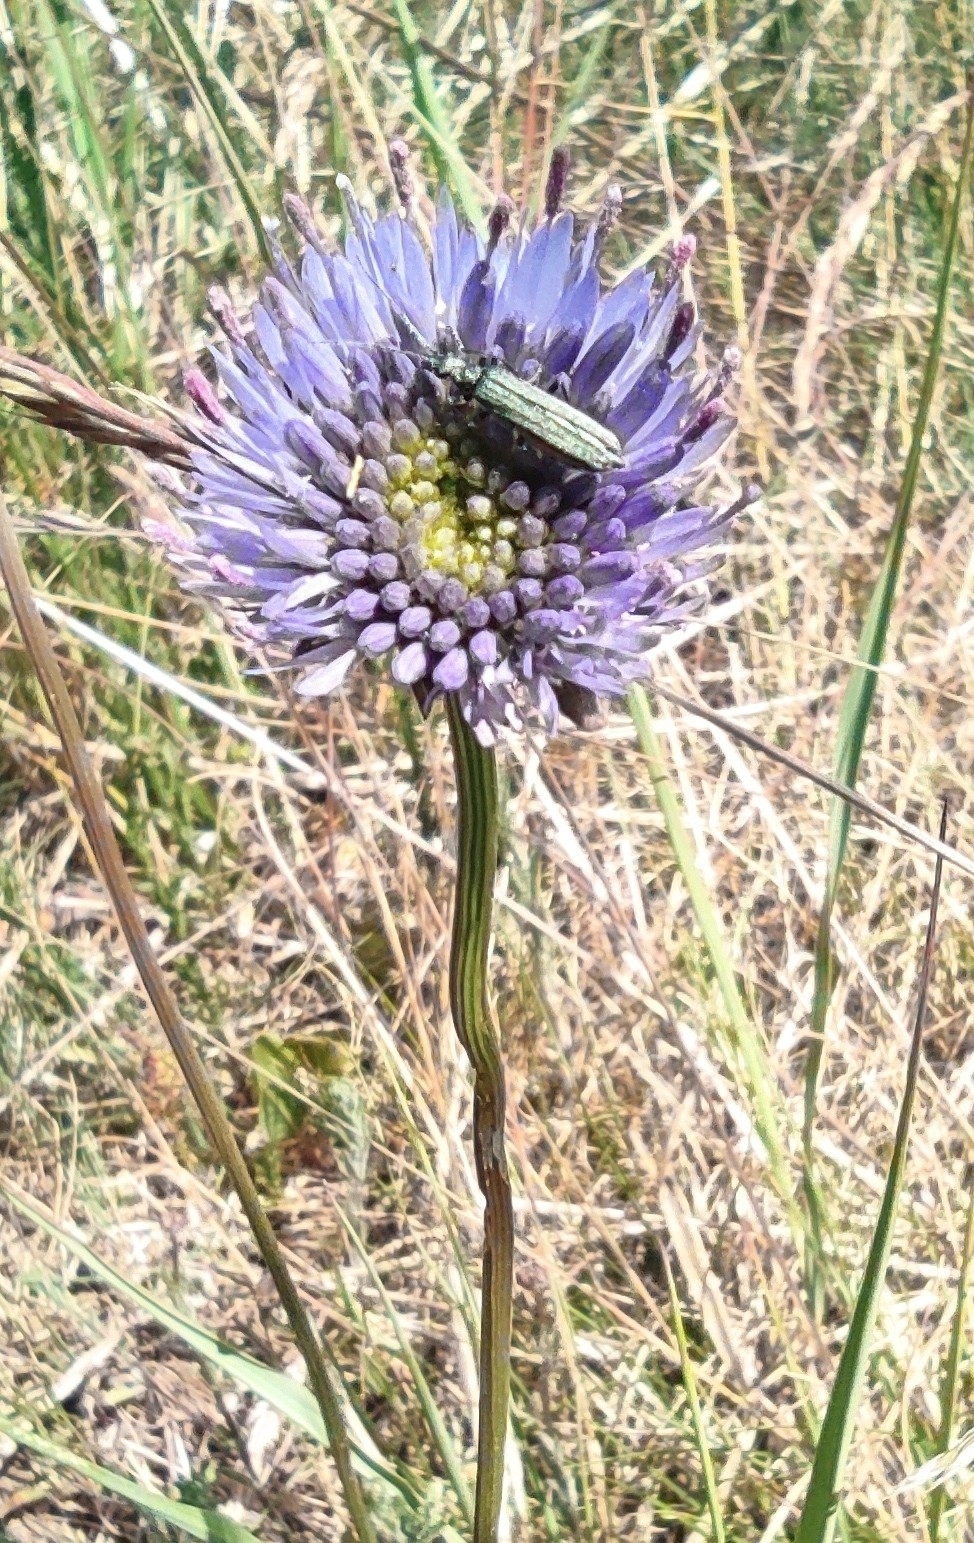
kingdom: Plantae
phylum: Tracheophyta
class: Magnoliopsida
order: Asterales
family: Campanulaceae
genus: Jasione
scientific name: Jasione montana
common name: Sheep's-bit
